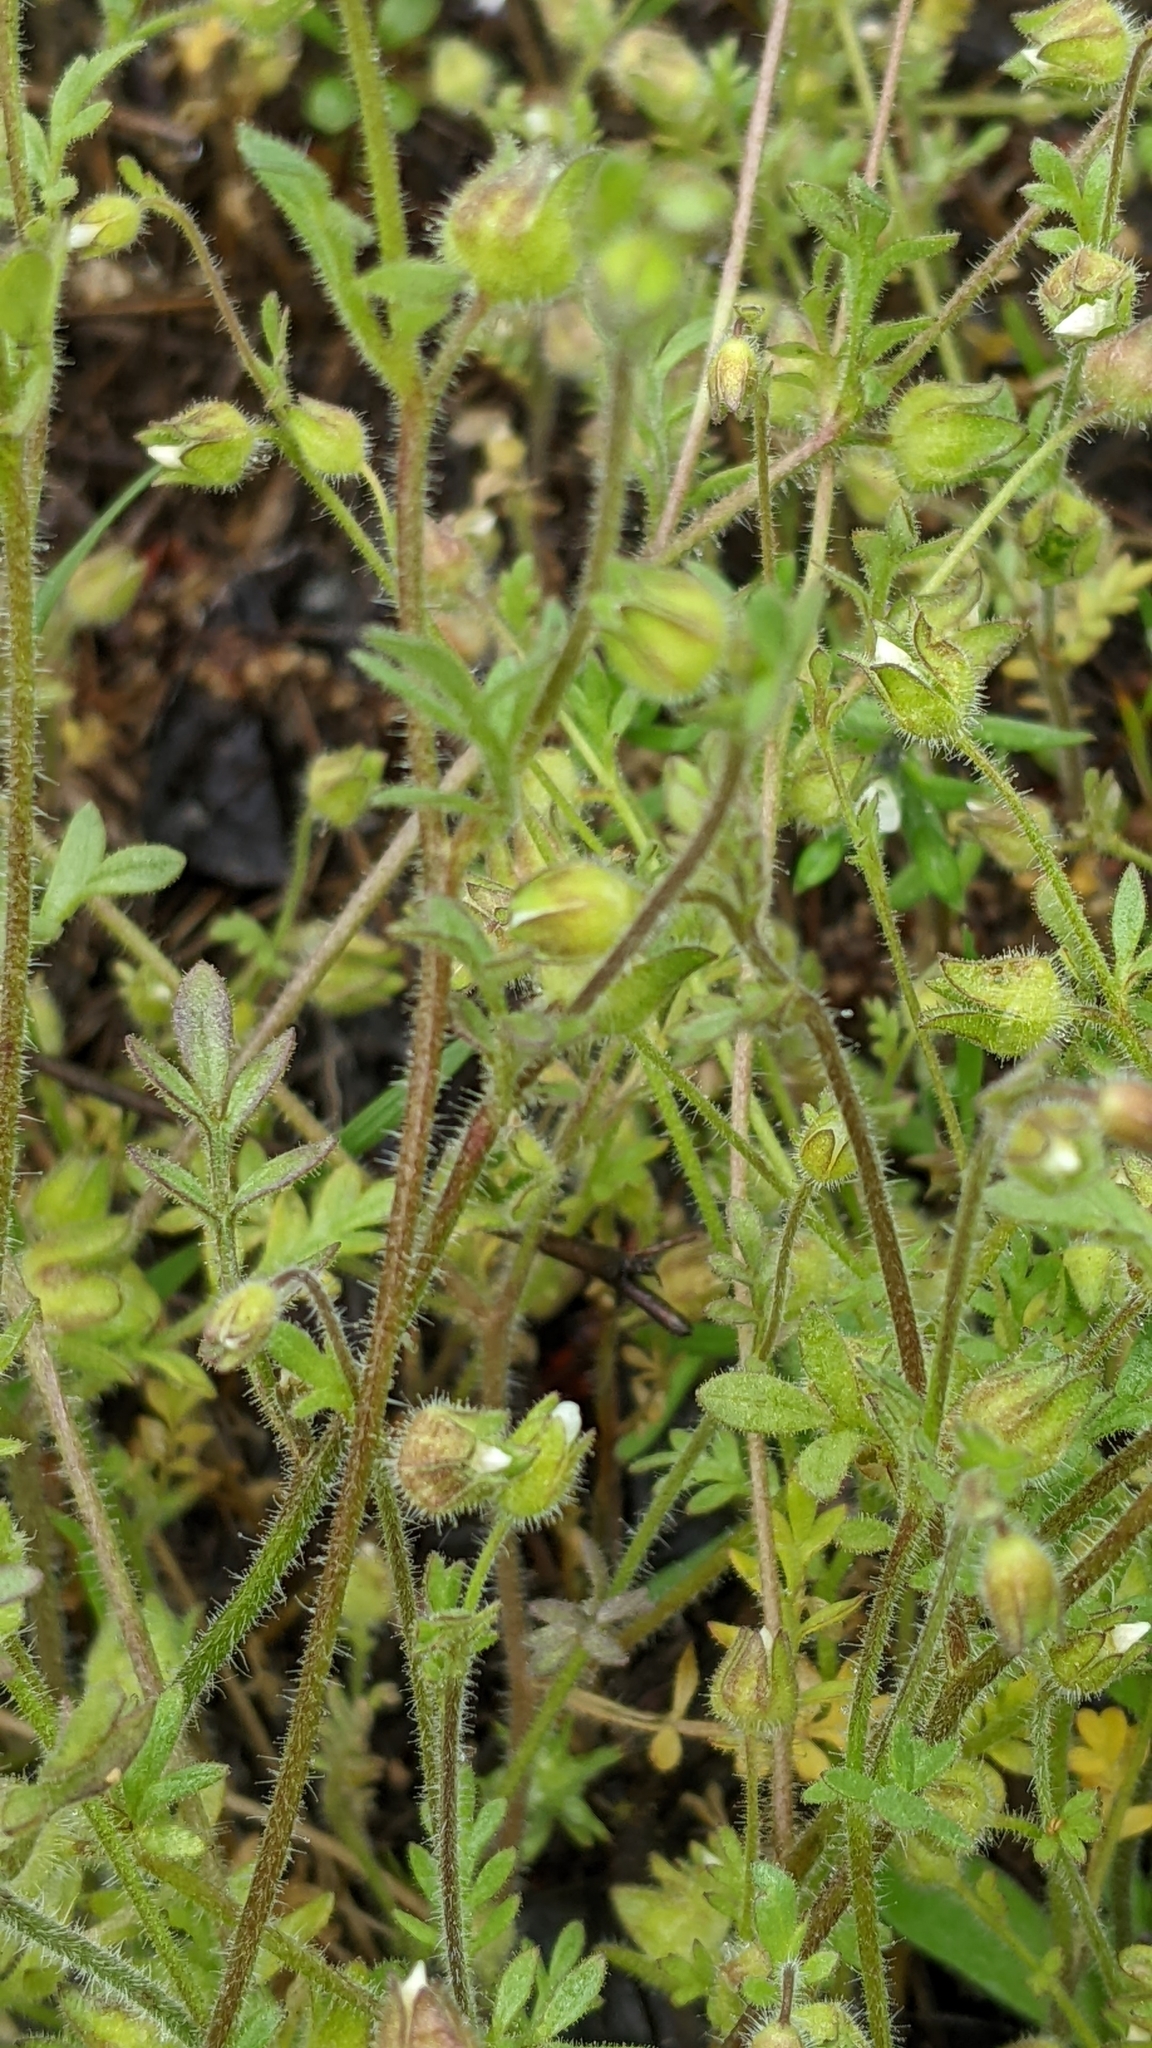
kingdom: Plantae
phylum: Tracheophyta
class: Magnoliopsida
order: Ericales
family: Polemoniaceae
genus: Polemonium
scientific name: Polemonium micranthum
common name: Annual jacob's-ladder
